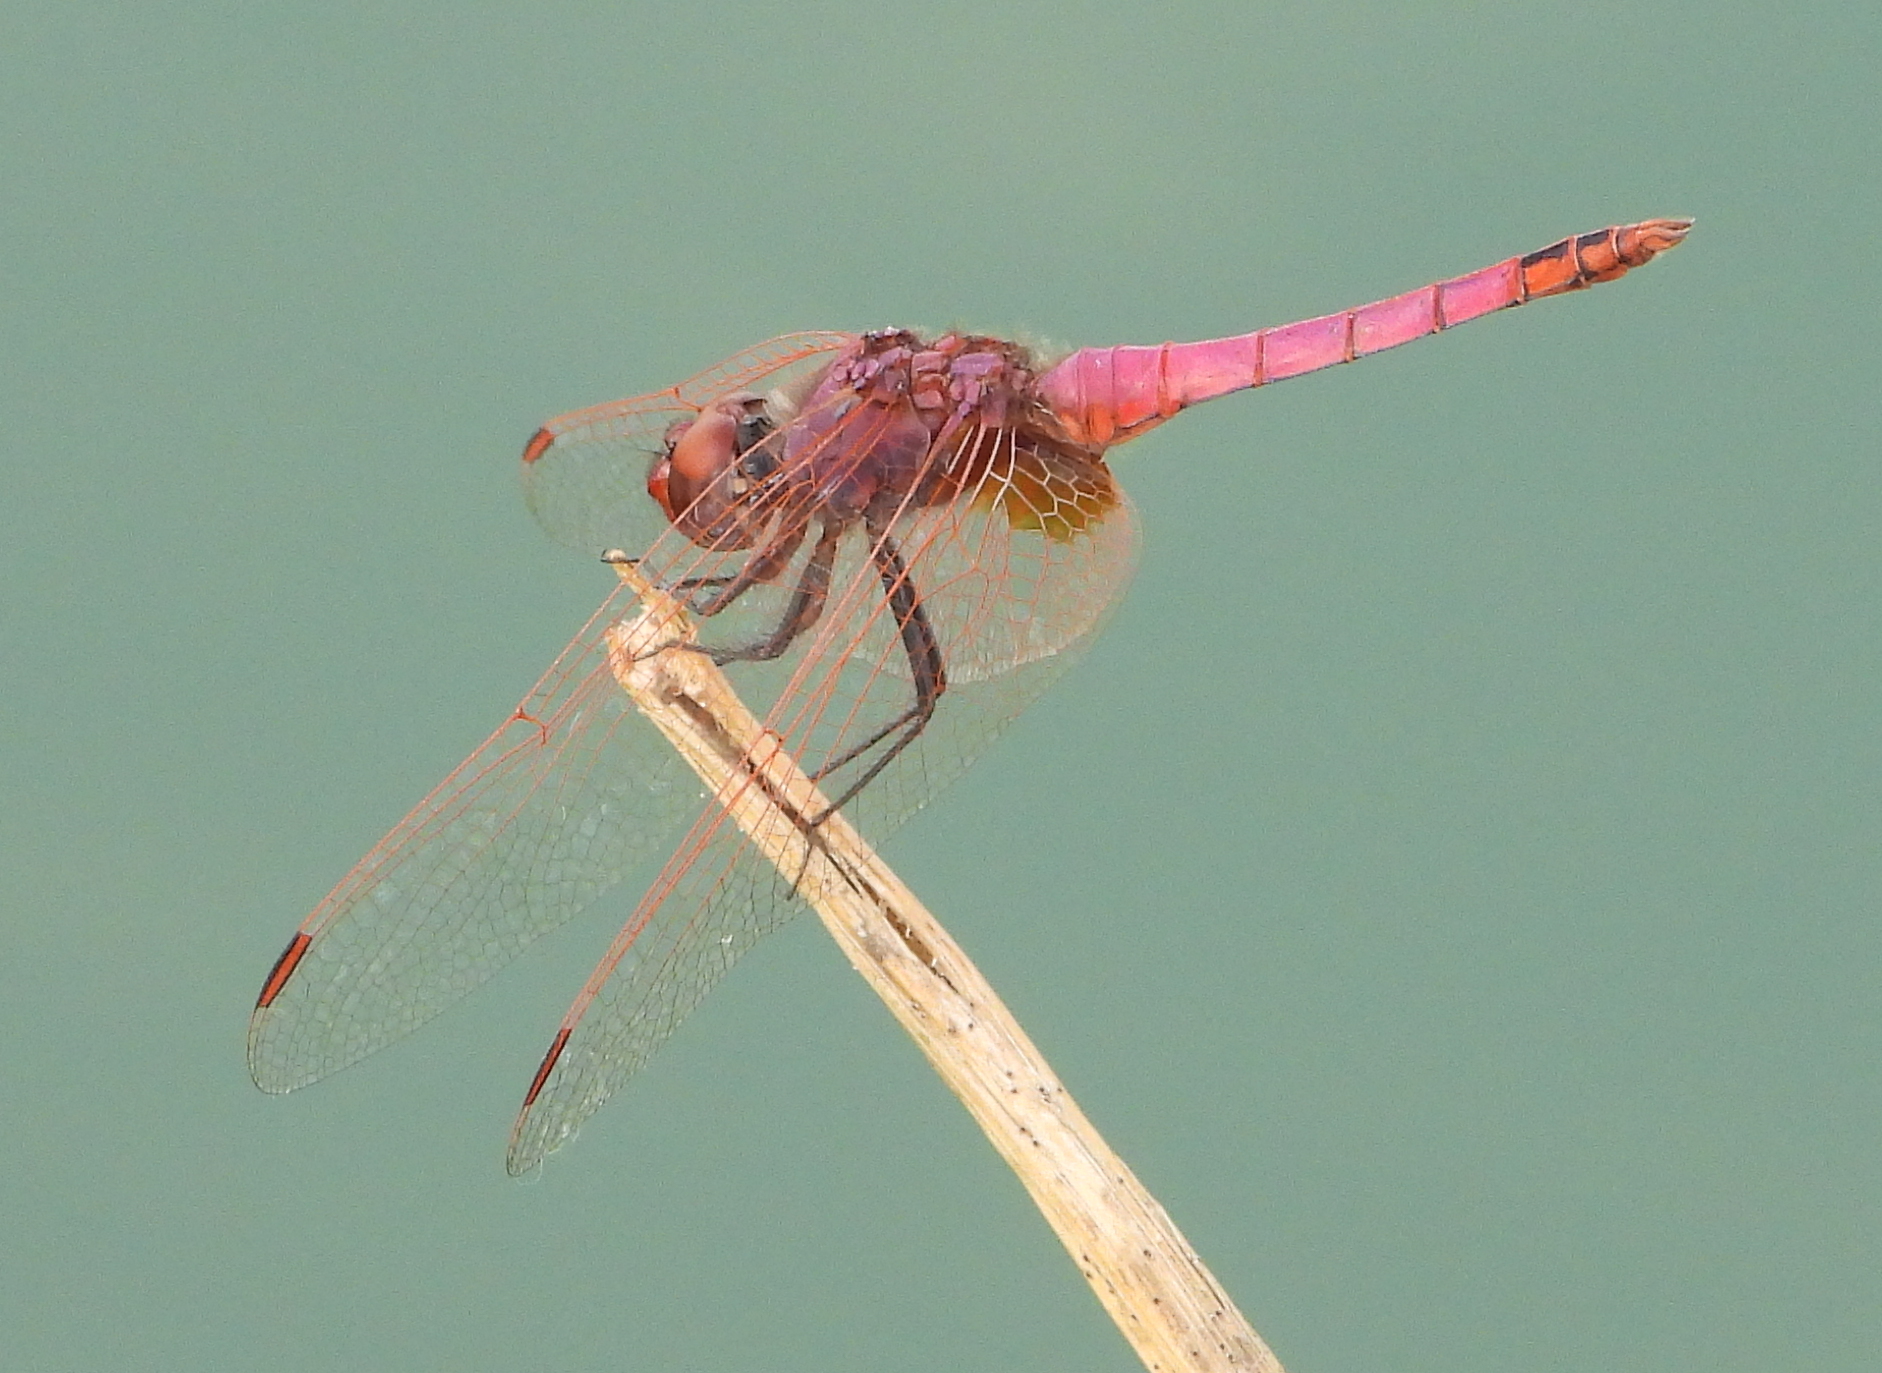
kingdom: Animalia
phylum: Arthropoda
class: Insecta
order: Odonata
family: Libellulidae
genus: Trithemis
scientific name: Trithemis annulata
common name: Violet dropwing
